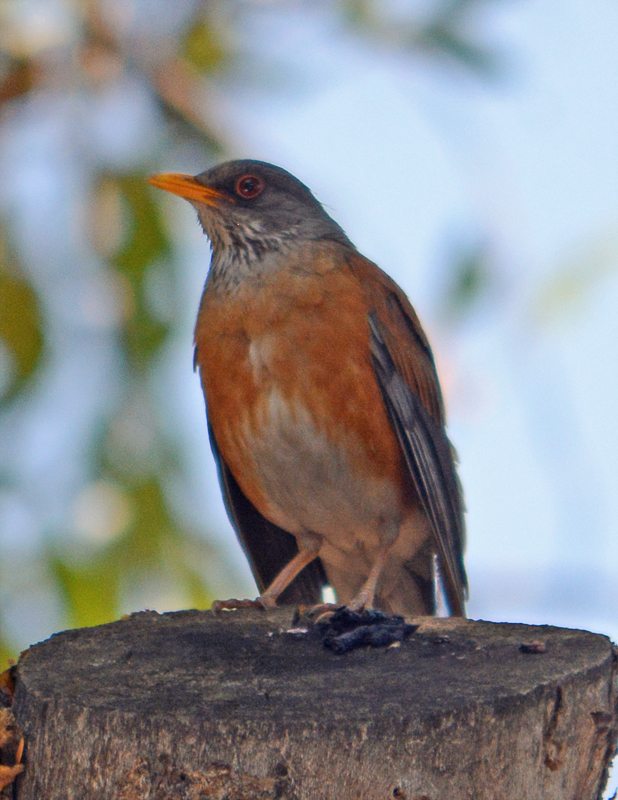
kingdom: Animalia
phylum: Chordata
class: Aves
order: Passeriformes
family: Turdidae
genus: Turdus
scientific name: Turdus rufopalliatus
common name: Rufous-backed robin
